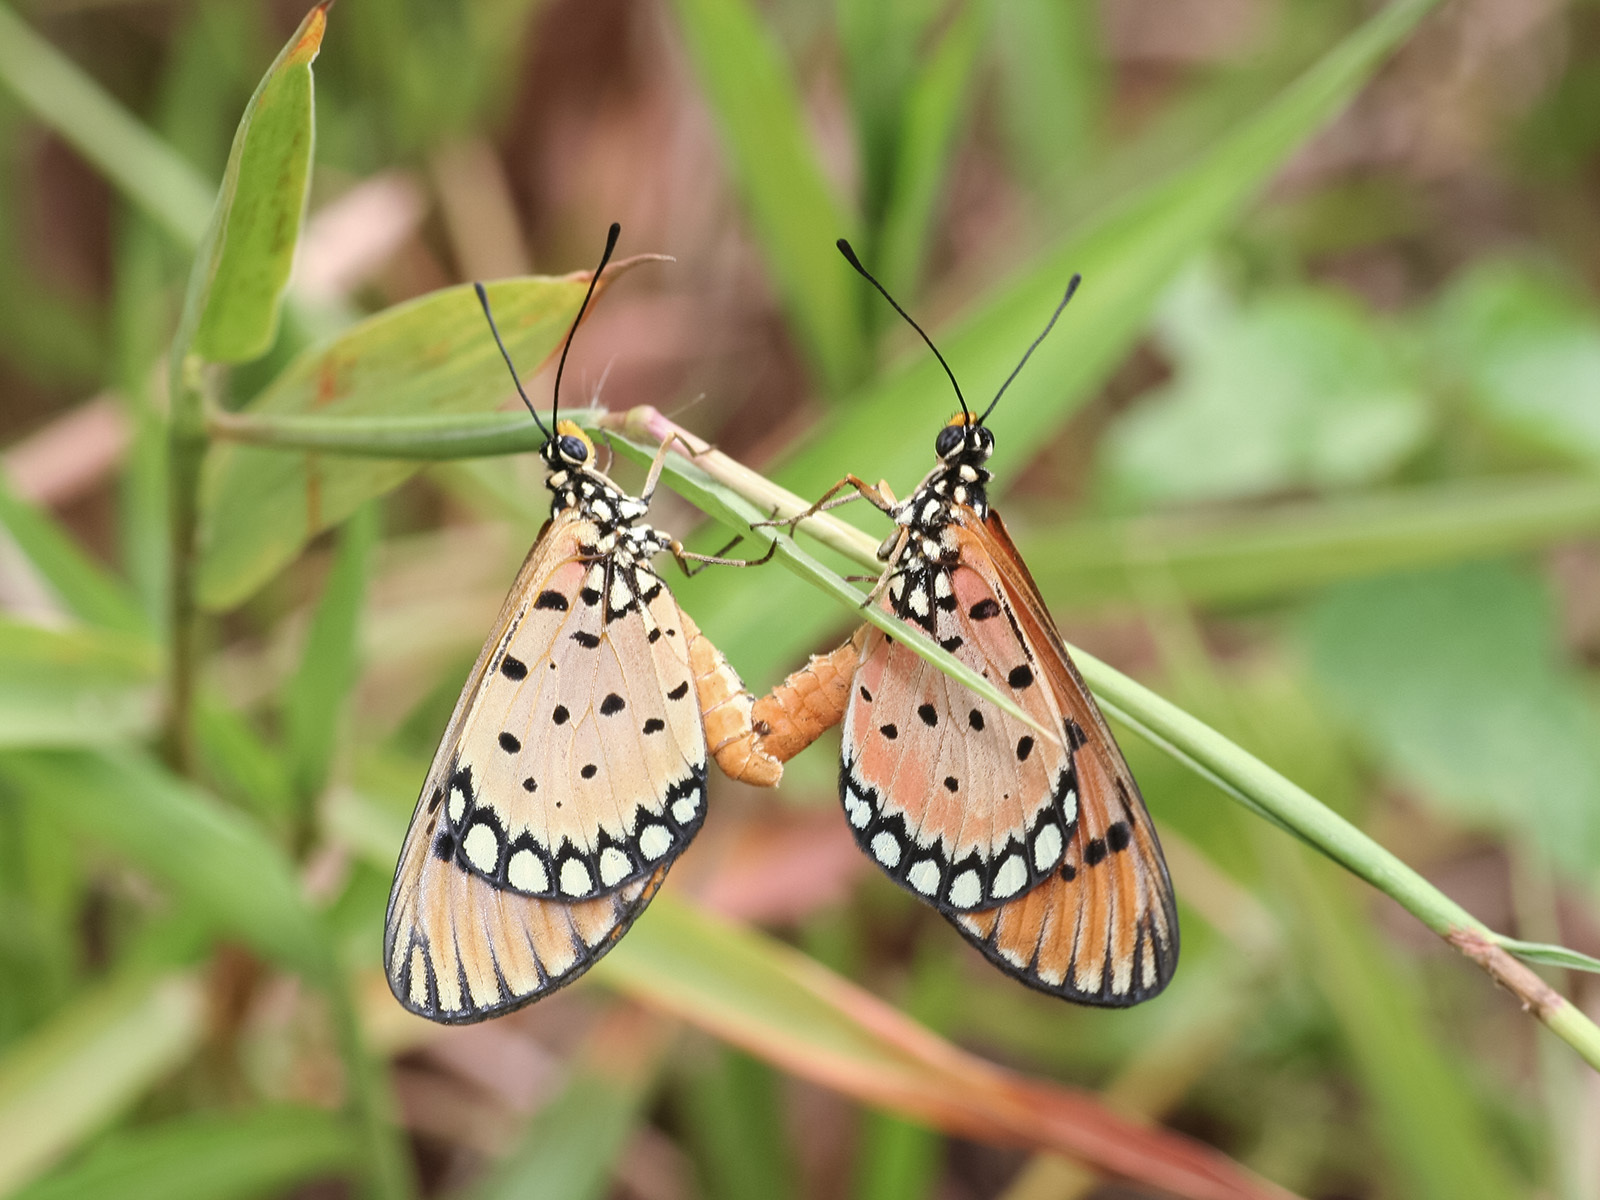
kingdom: Animalia
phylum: Arthropoda
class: Insecta
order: Lepidoptera
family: Nymphalidae
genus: Acraea
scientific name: Acraea terpsicore
